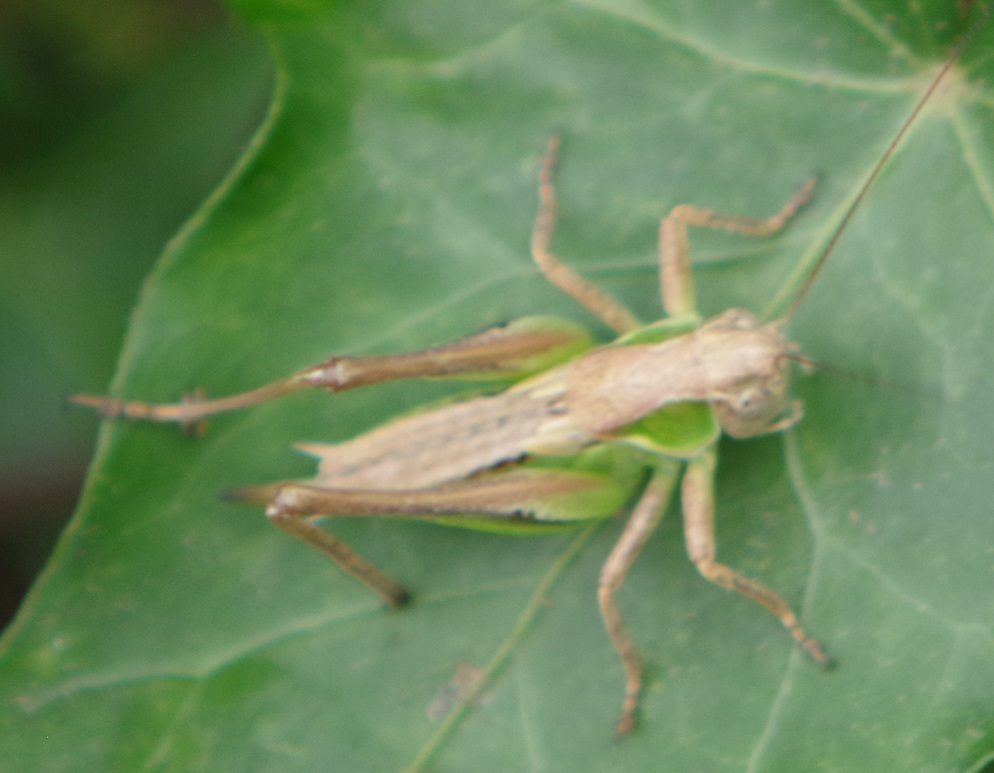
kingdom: Animalia
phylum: Arthropoda
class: Insecta
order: Orthoptera
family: Tettigoniidae
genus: Platycleis
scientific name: Platycleis albopunctata
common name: Grey bush-cricket
